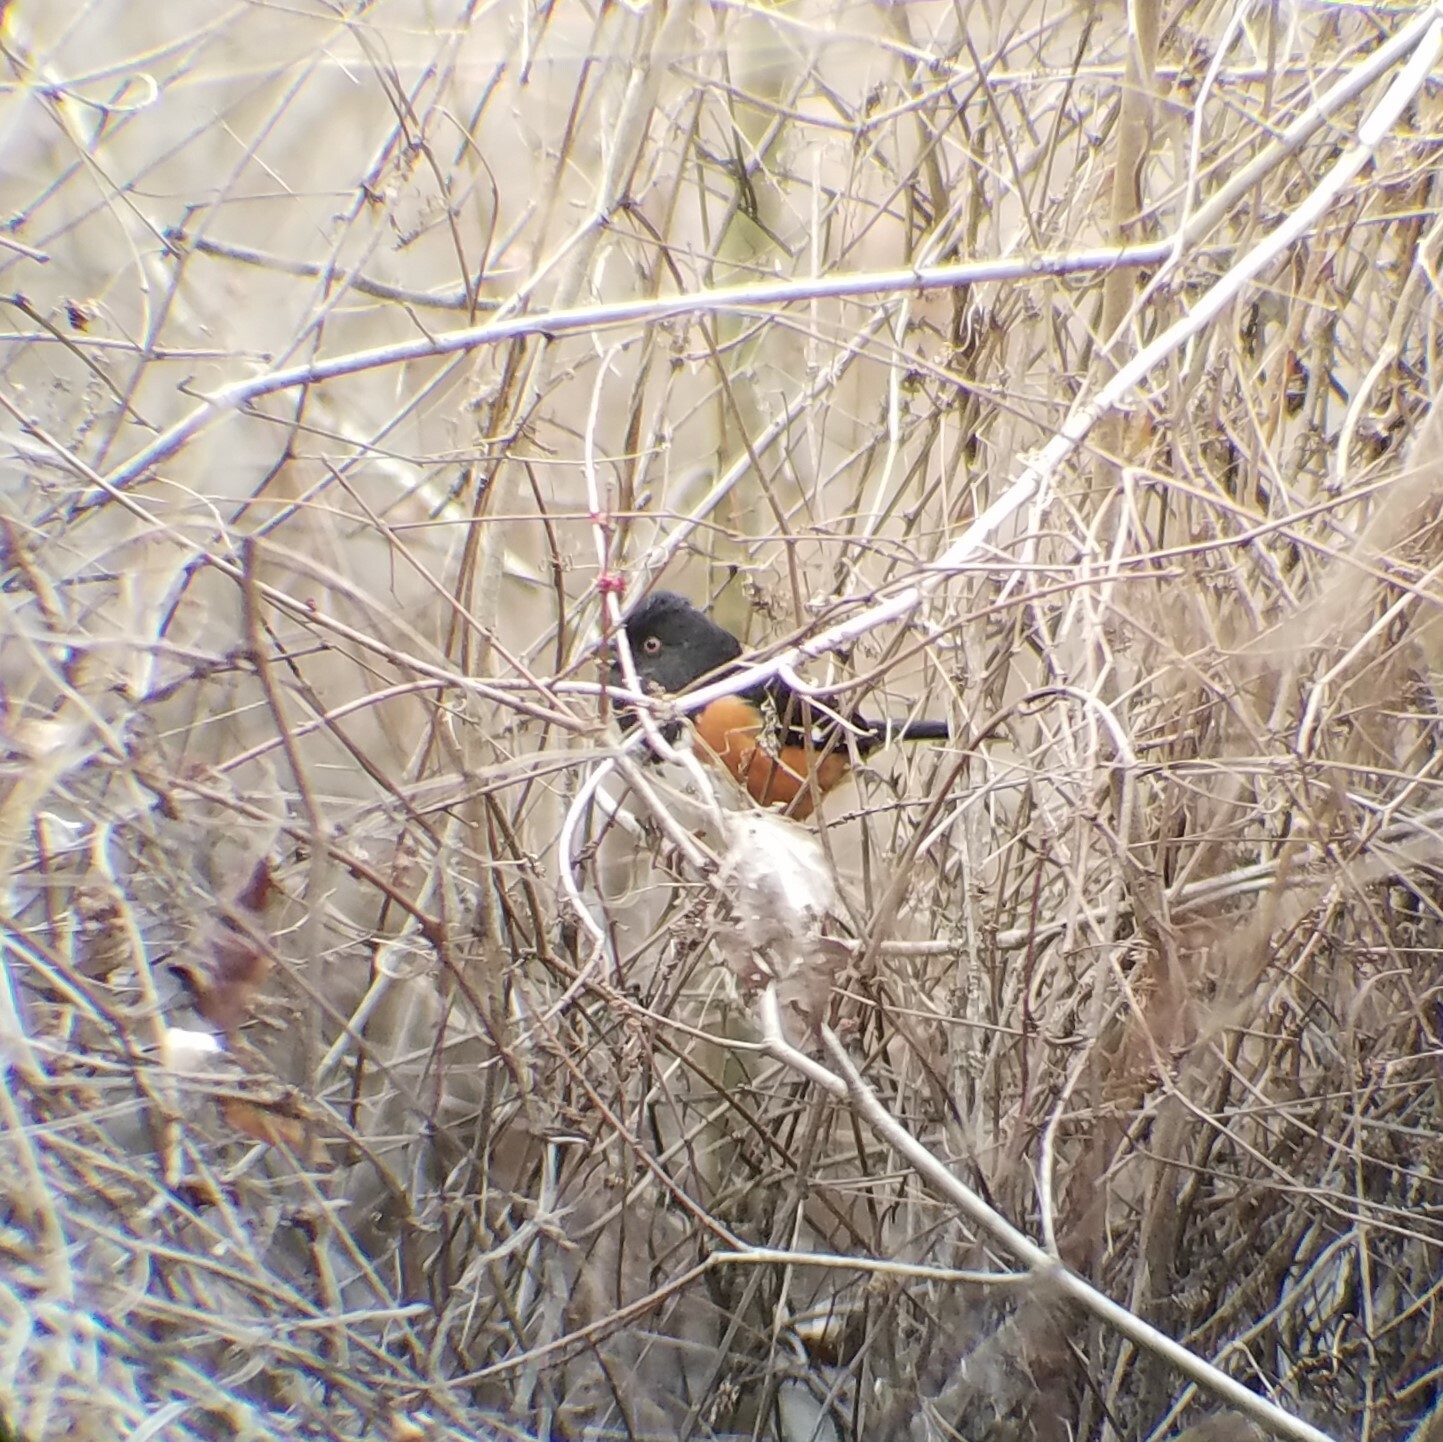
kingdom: Animalia
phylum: Chordata
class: Aves
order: Passeriformes
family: Passerellidae
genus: Pipilo
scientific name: Pipilo erythrophthalmus
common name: Eastern towhee
